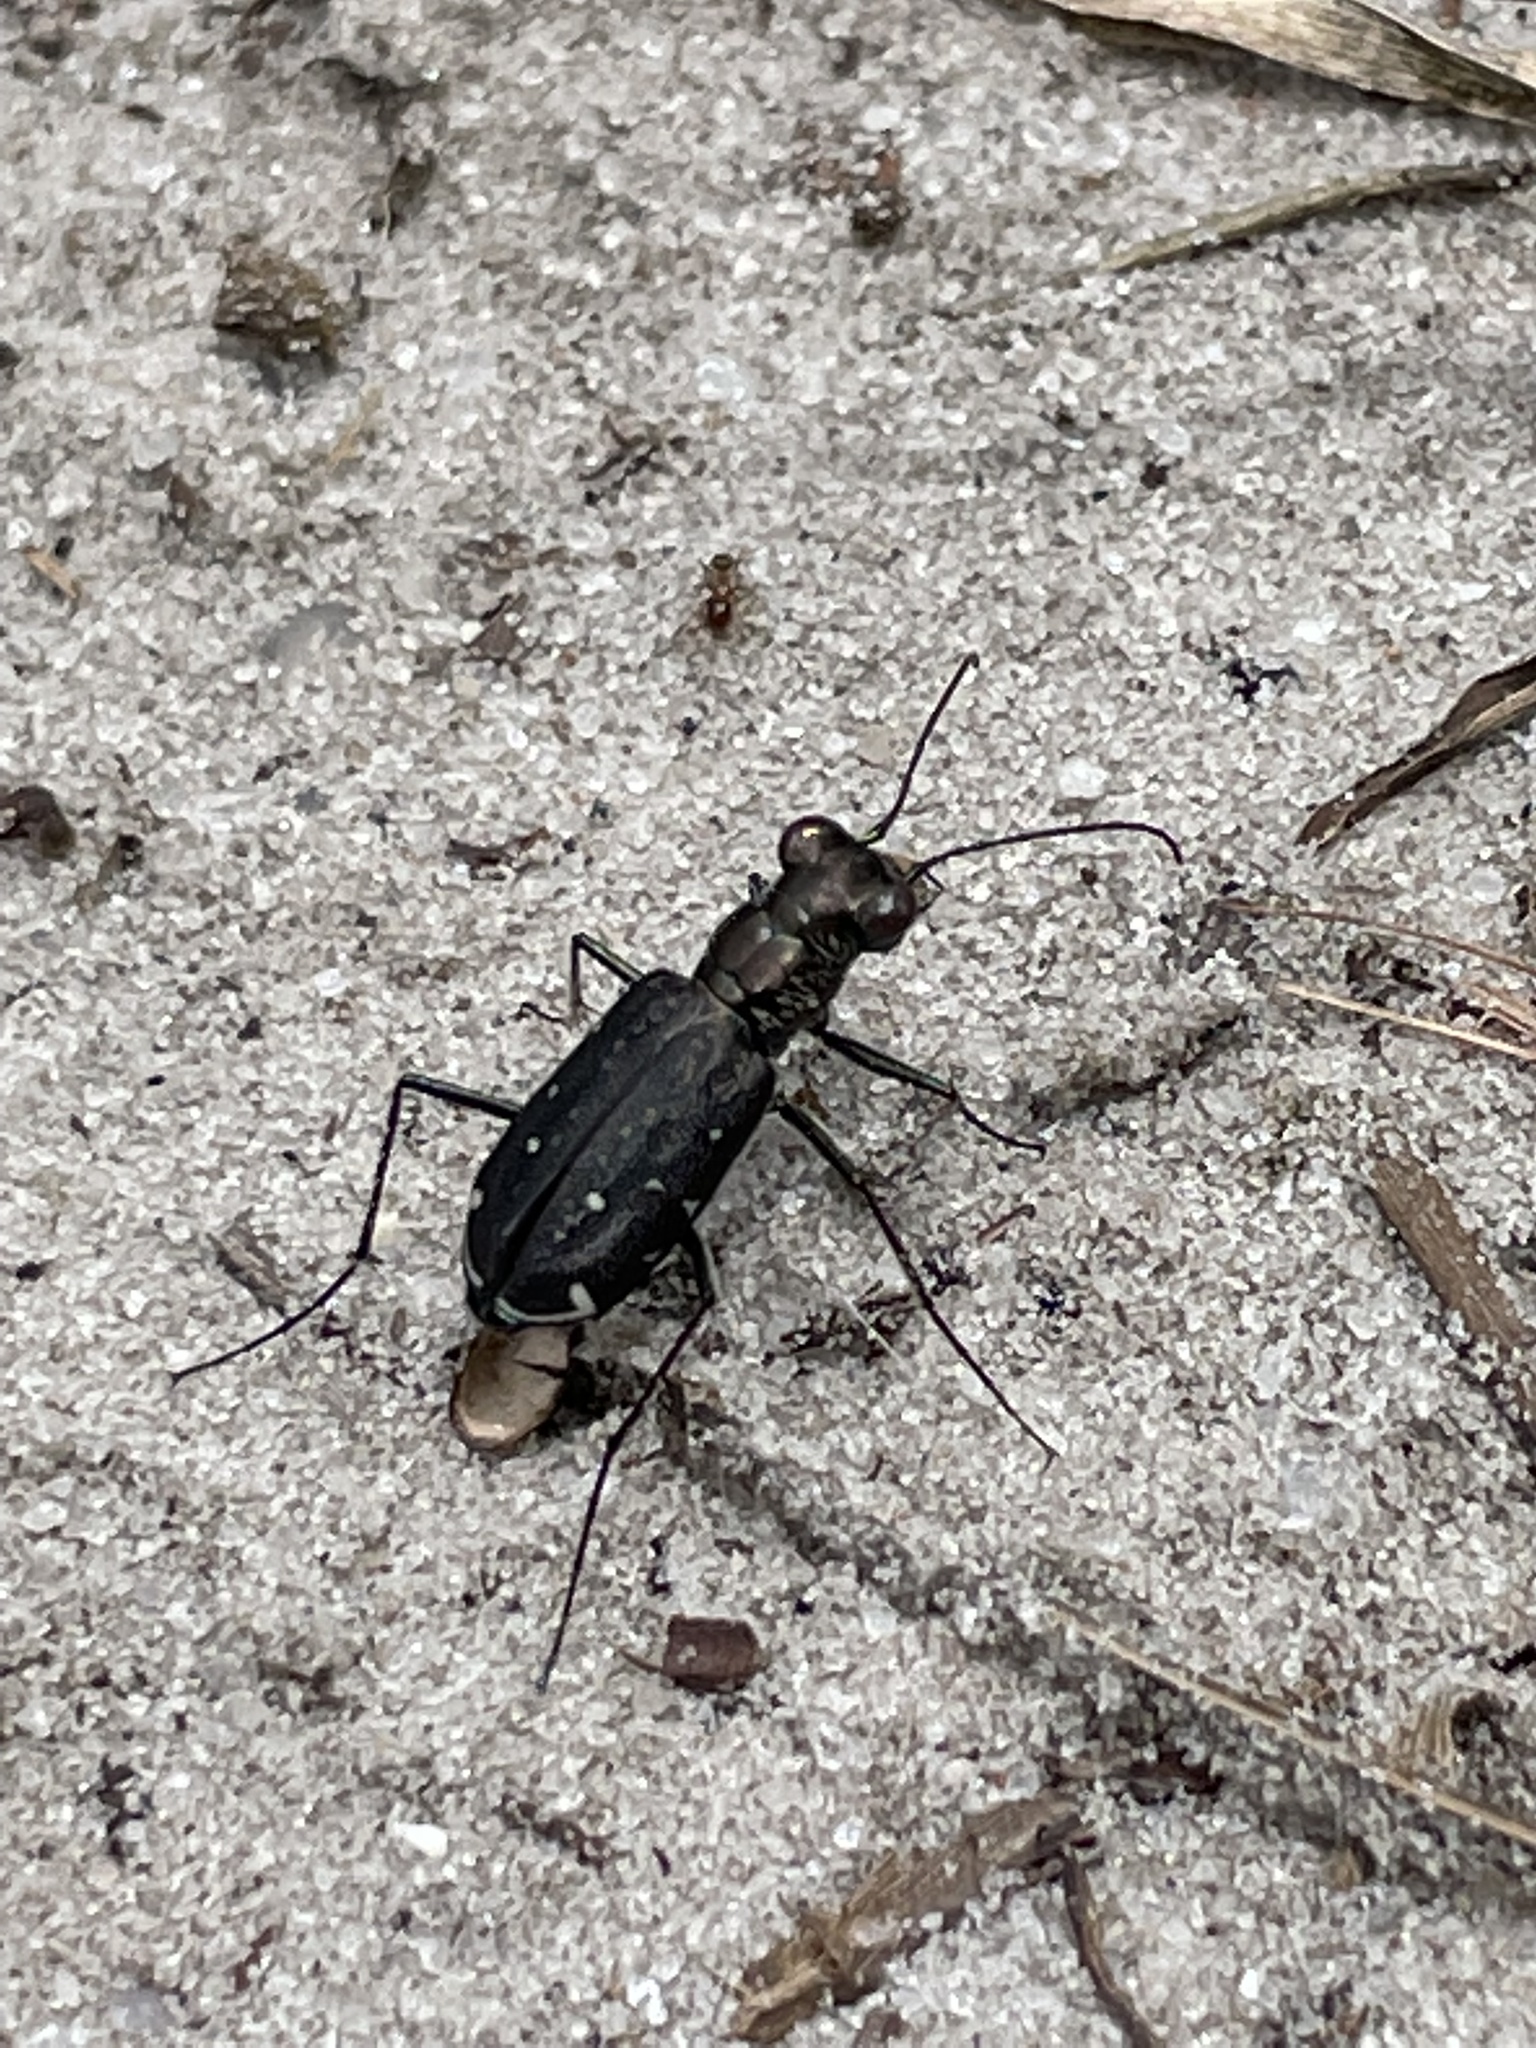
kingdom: Animalia
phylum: Arthropoda
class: Insecta
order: Coleoptera
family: Carabidae
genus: Cicindela
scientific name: Cicindela punctulata
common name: Punctured tiger beetle
